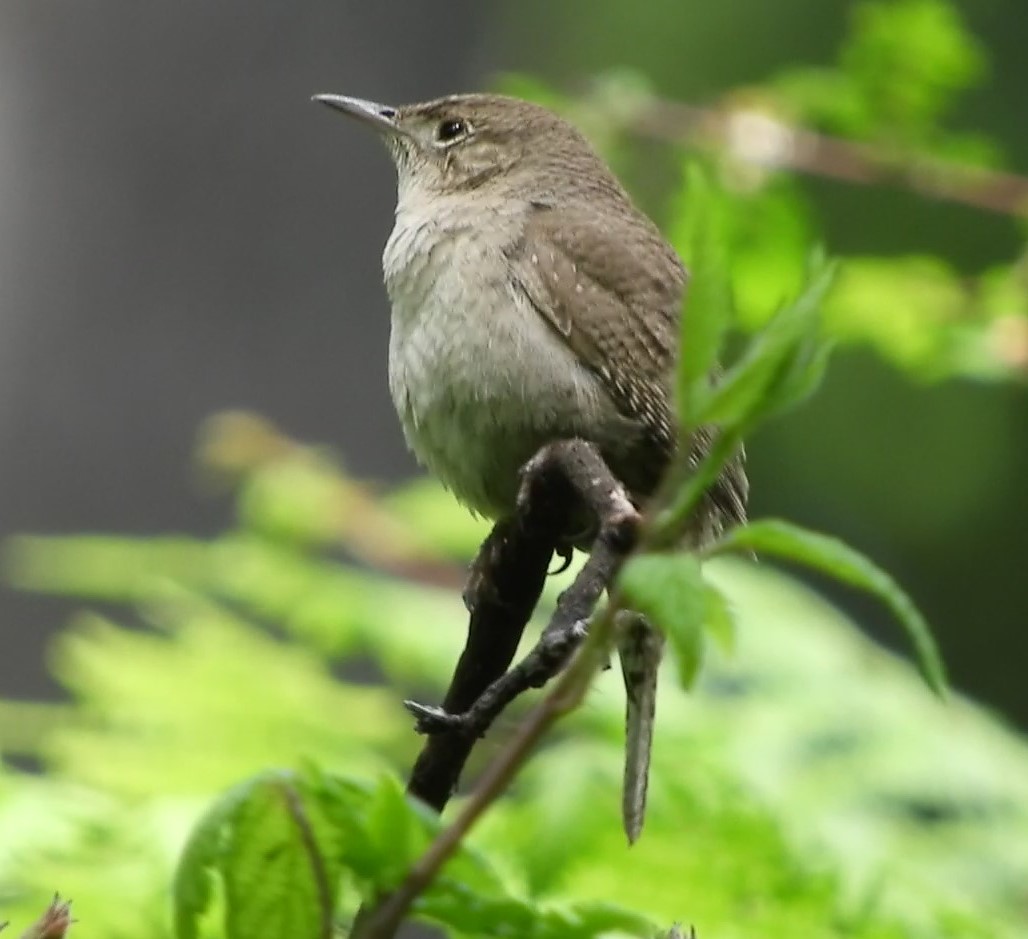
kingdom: Animalia
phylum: Chordata
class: Aves
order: Passeriformes
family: Troglodytidae
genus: Troglodytes
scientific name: Troglodytes aedon
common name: House wren
